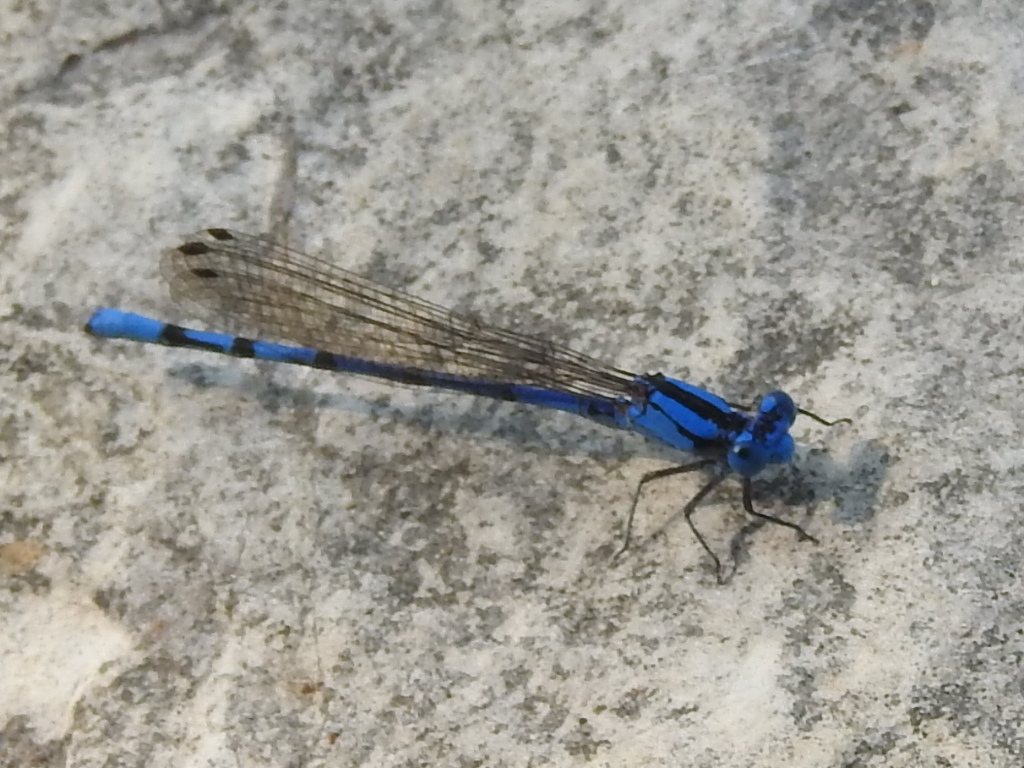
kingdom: Animalia
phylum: Arthropoda
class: Insecta
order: Odonata
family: Coenagrionidae
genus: Argia
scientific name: Argia funebris
